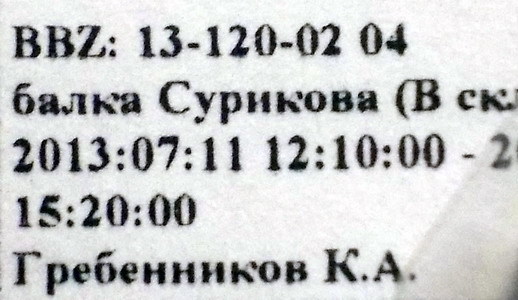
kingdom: Animalia
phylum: Arthropoda
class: Insecta
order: Hemiptera
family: Coreidae
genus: Spathocera
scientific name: Spathocera lobata
